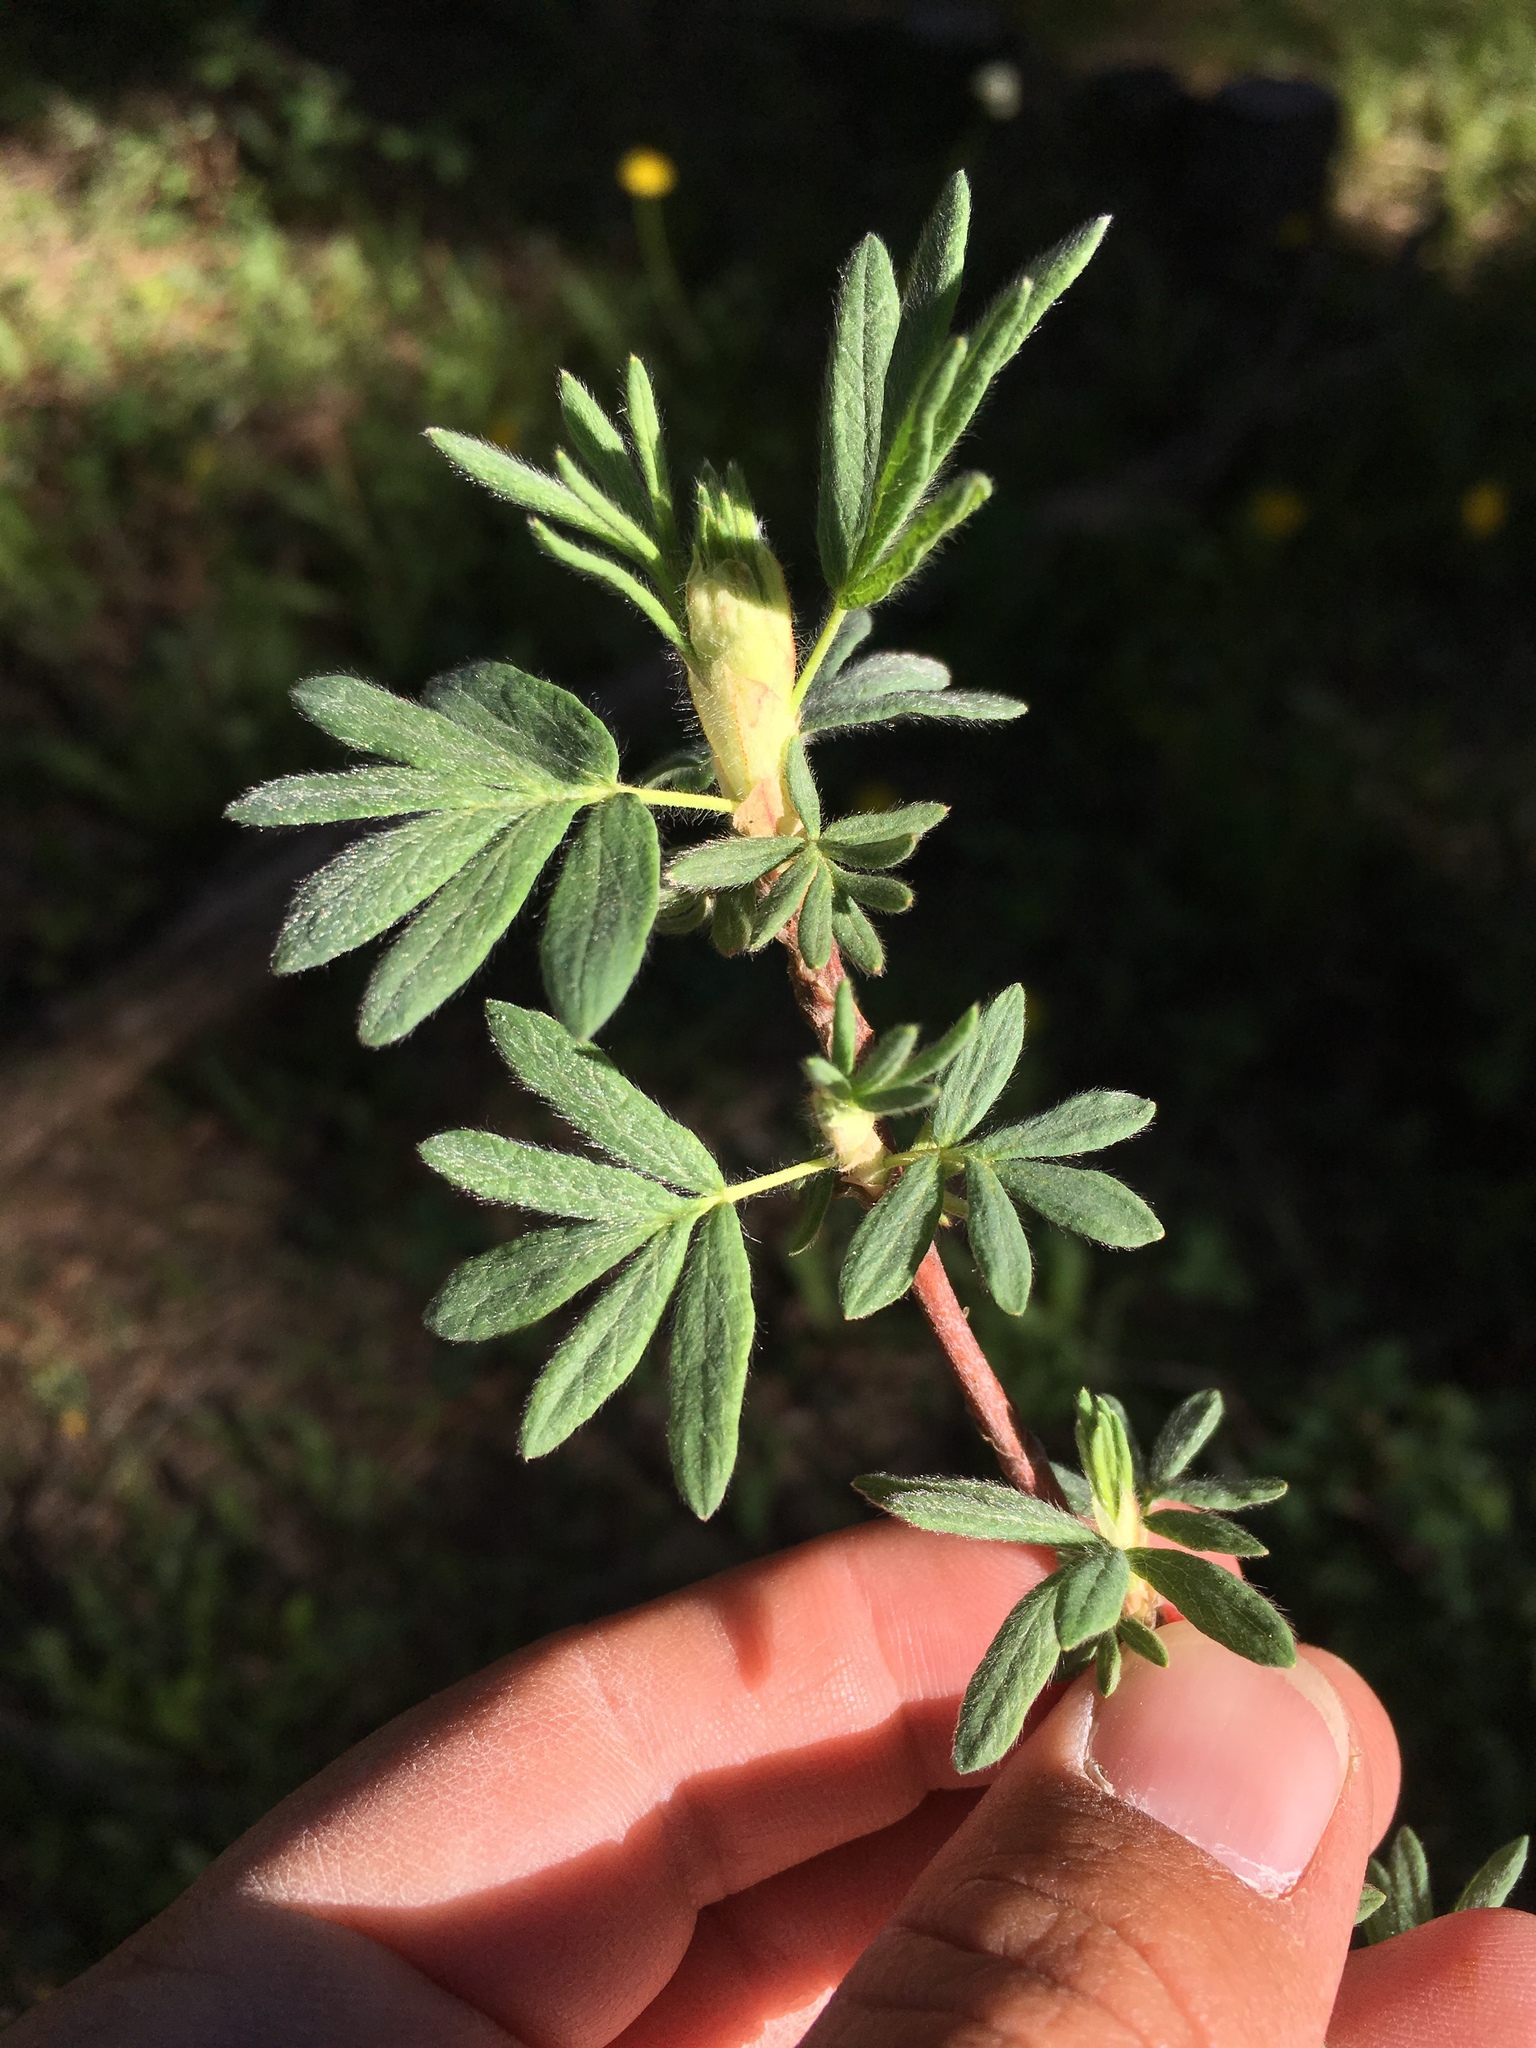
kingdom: Plantae
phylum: Tracheophyta
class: Magnoliopsida
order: Rosales
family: Rosaceae
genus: Dasiphora
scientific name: Dasiphora fruticosa
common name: Shrubby cinquefoil
